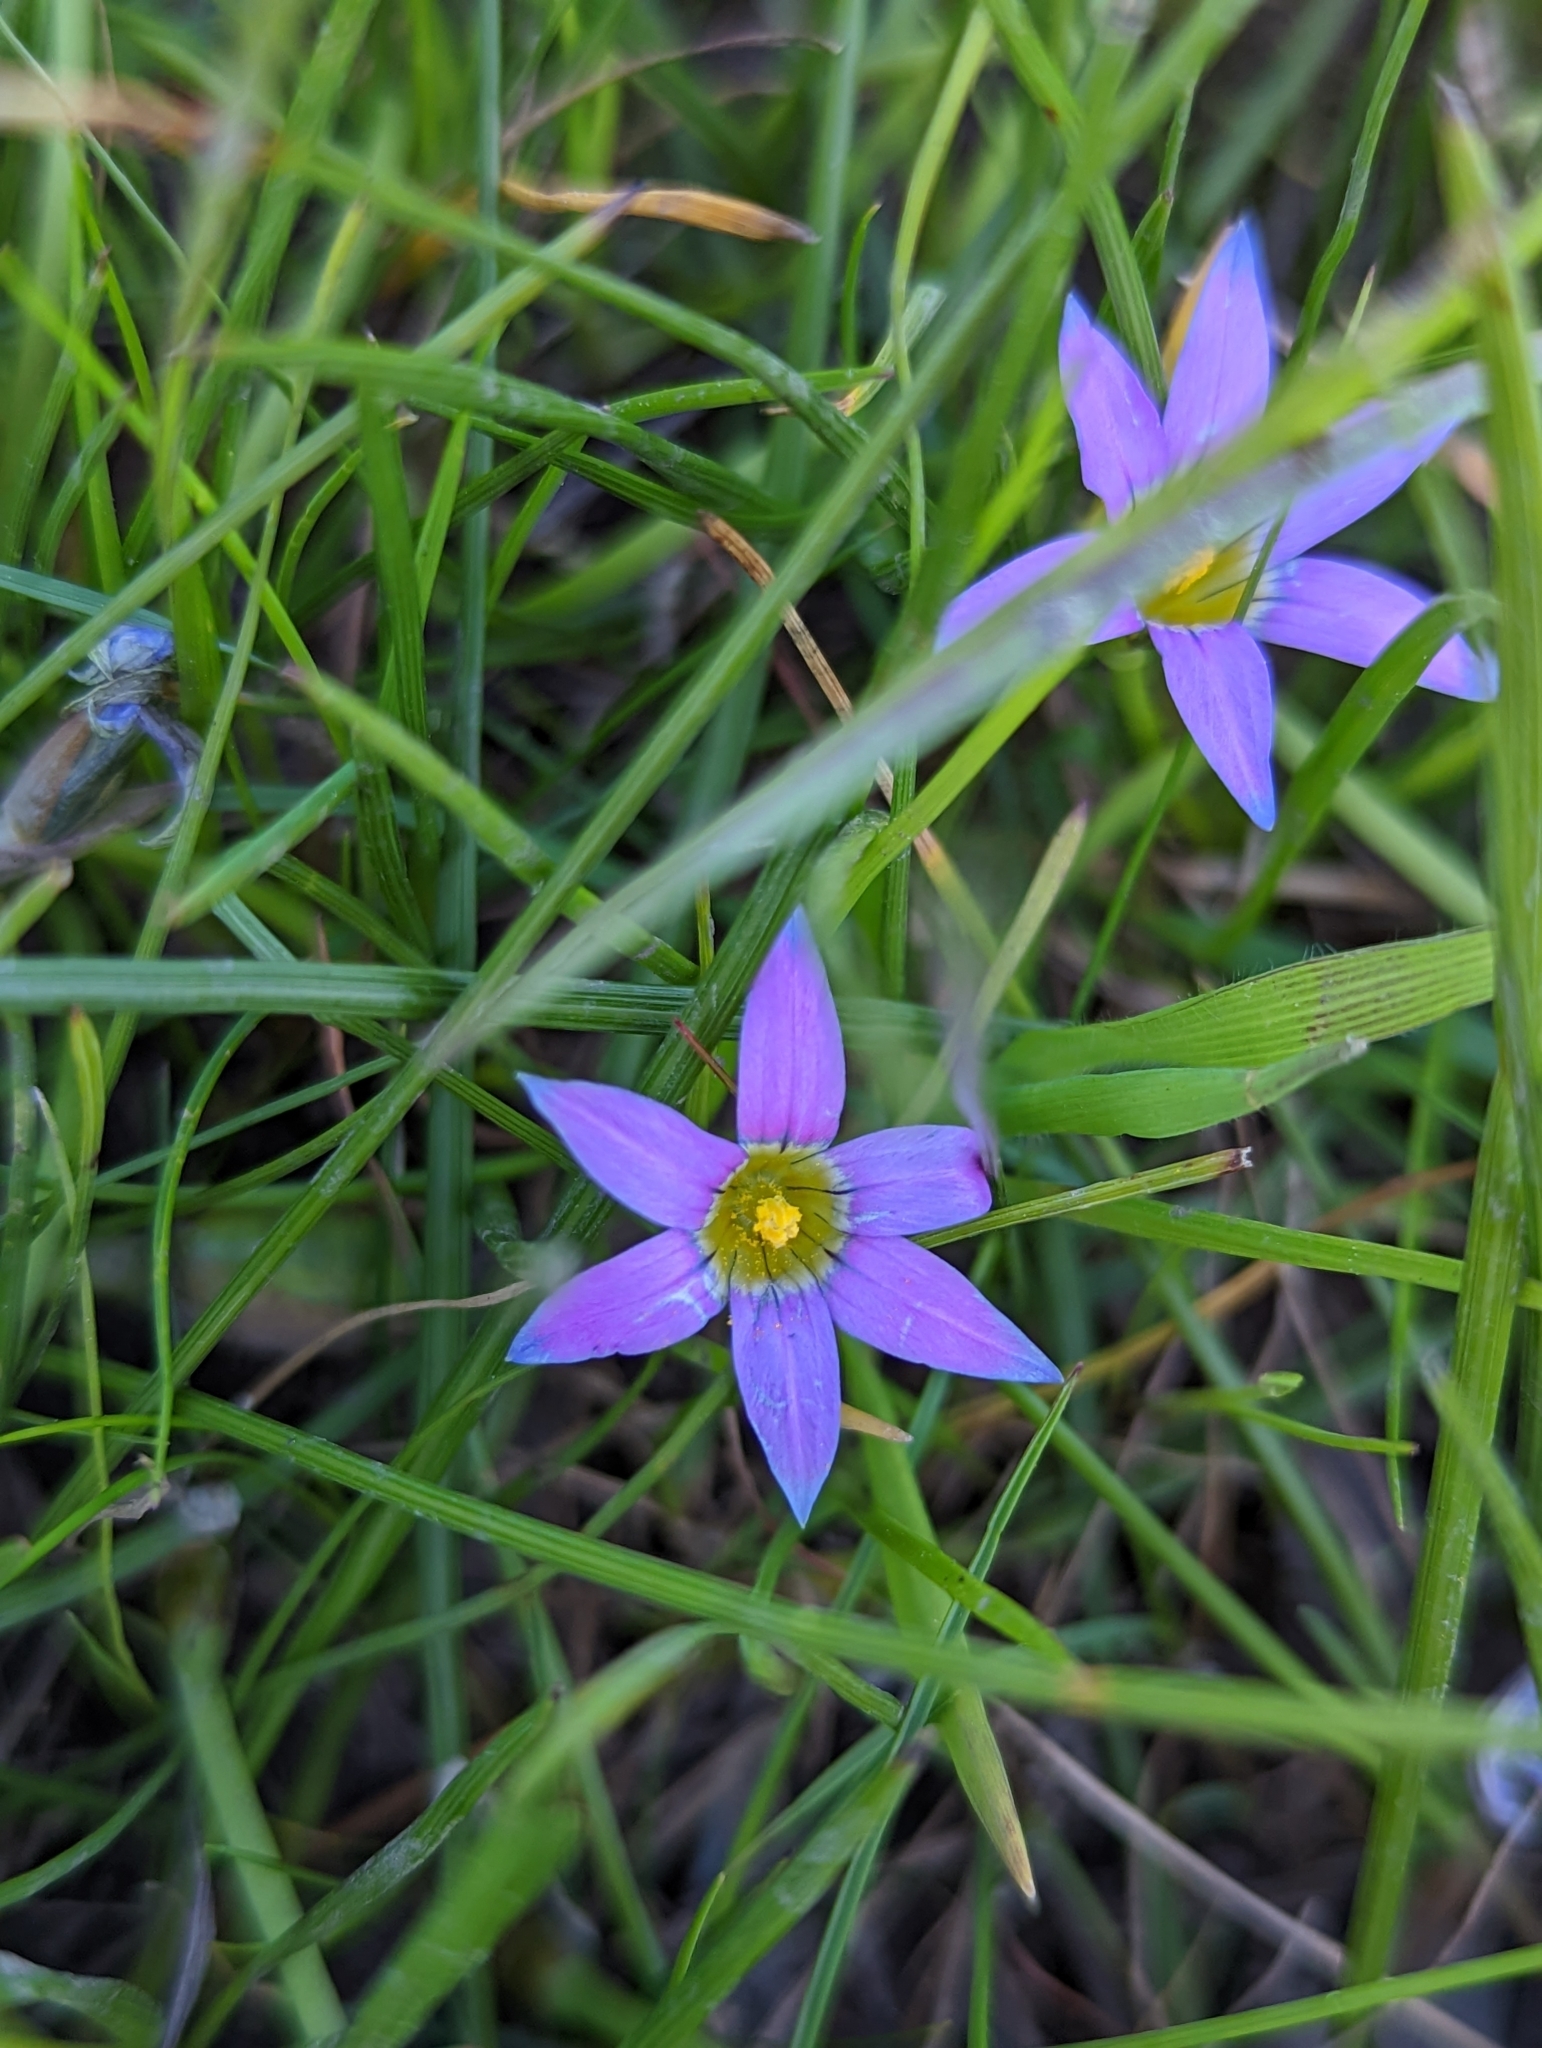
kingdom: Plantae
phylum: Tracheophyta
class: Liliopsida
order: Asparagales
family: Iridaceae
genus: Romulea
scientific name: Romulea rosea
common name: Oniongrass
